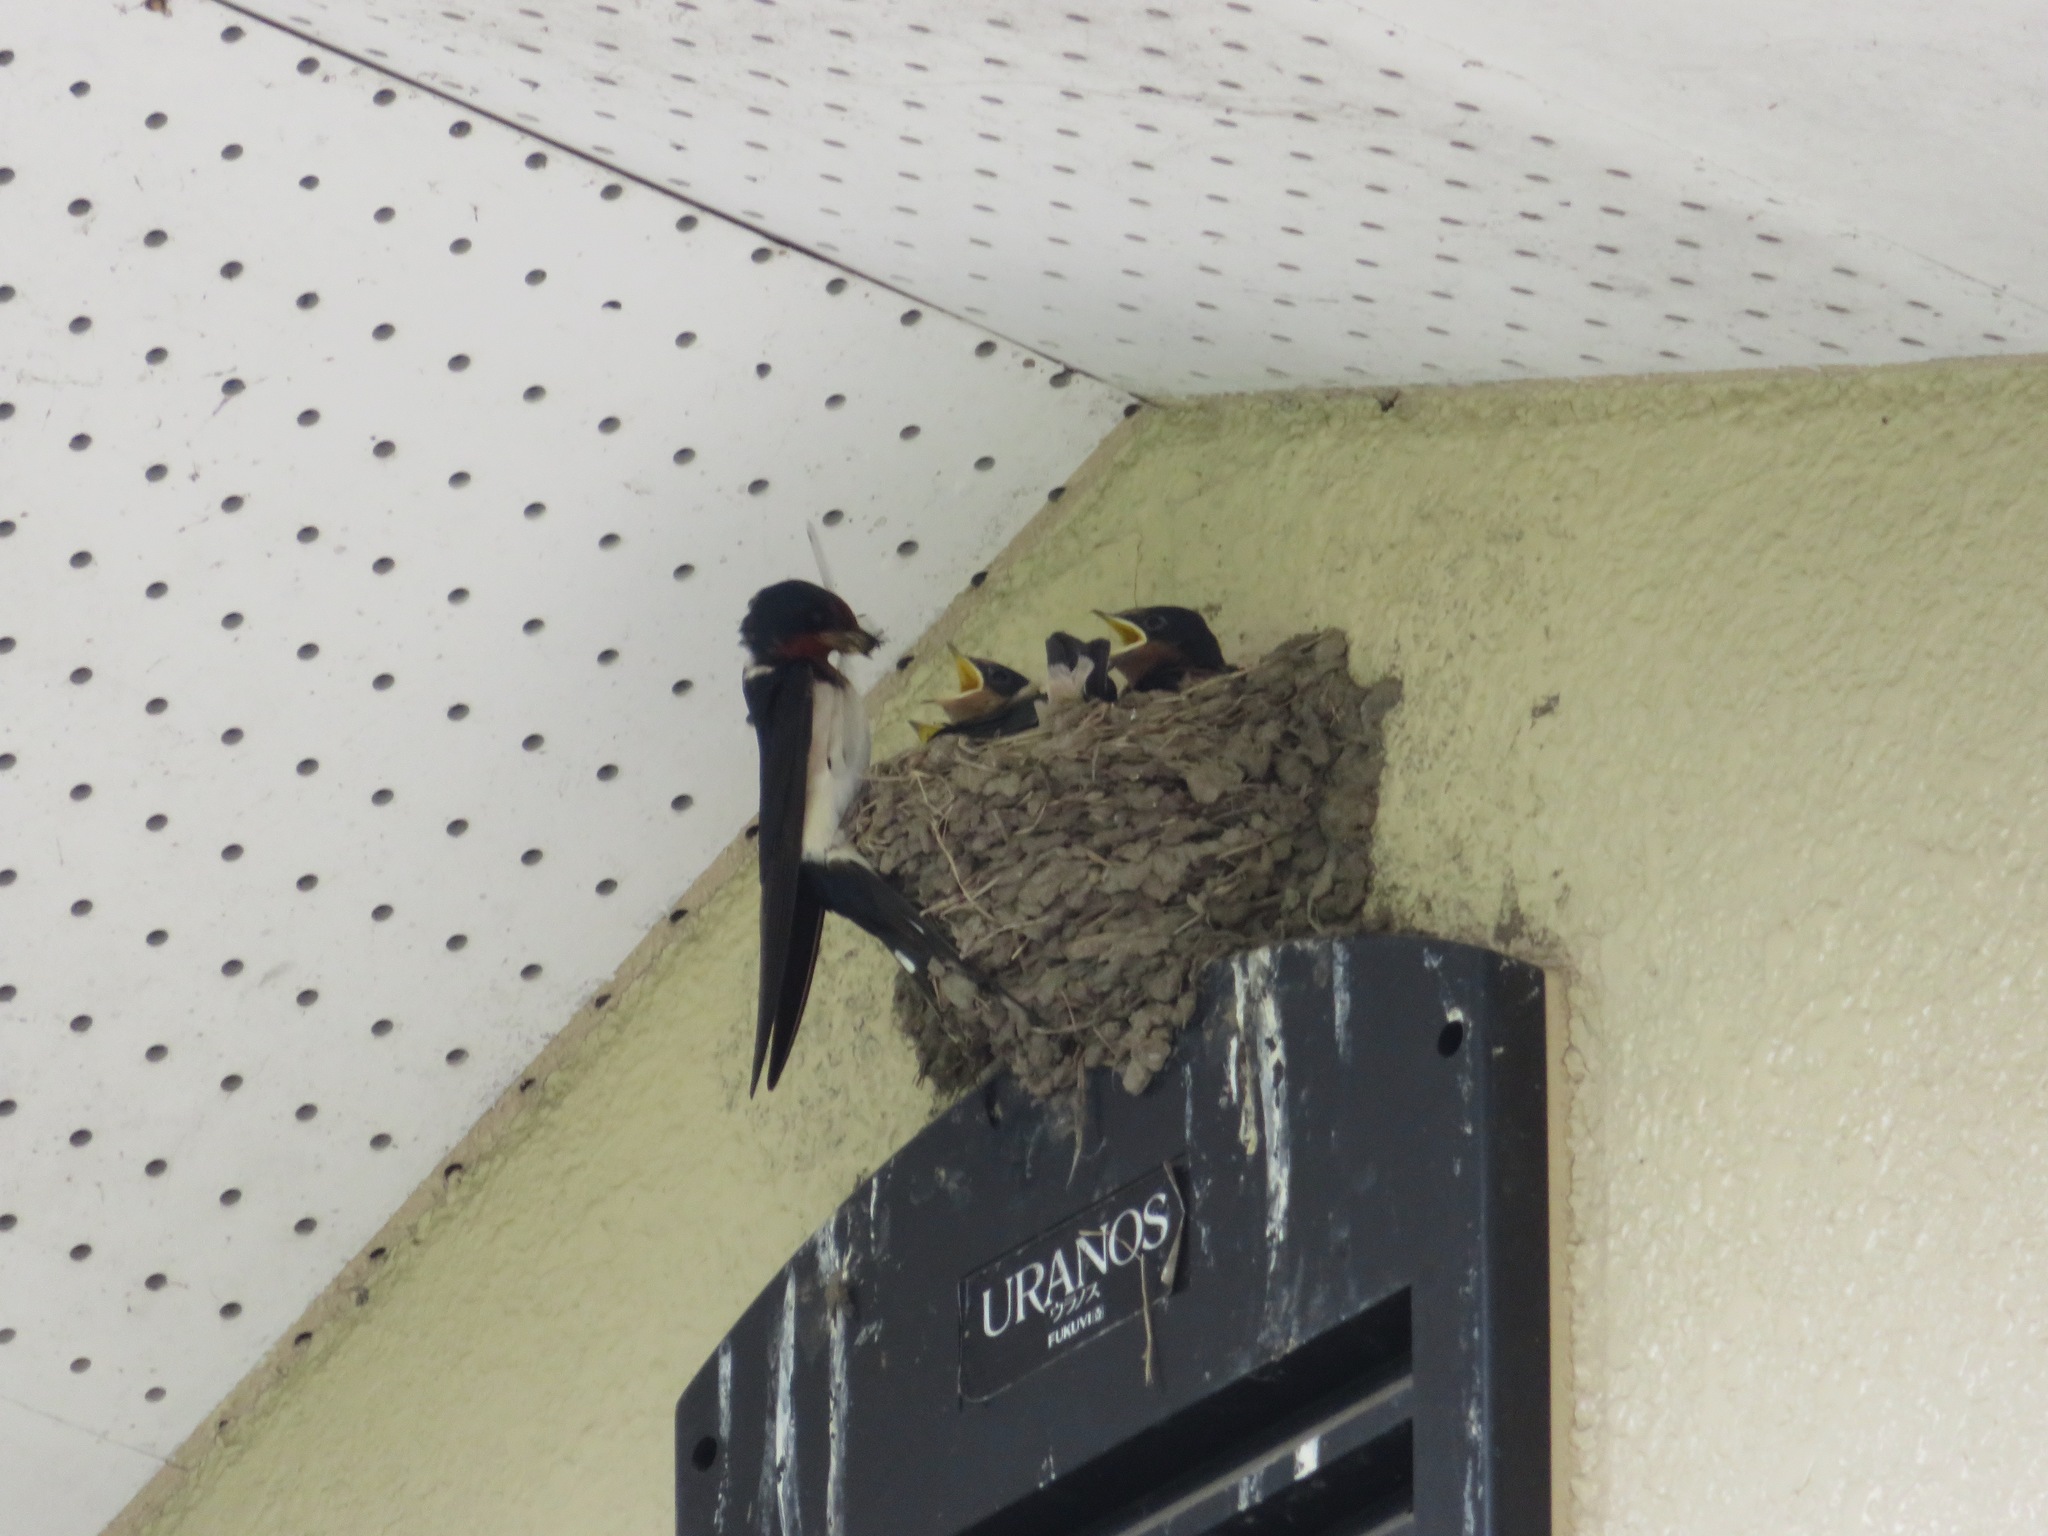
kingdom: Animalia
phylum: Chordata
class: Aves
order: Passeriformes
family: Hirundinidae
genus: Hirundo
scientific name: Hirundo rustica
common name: Barn swallow
